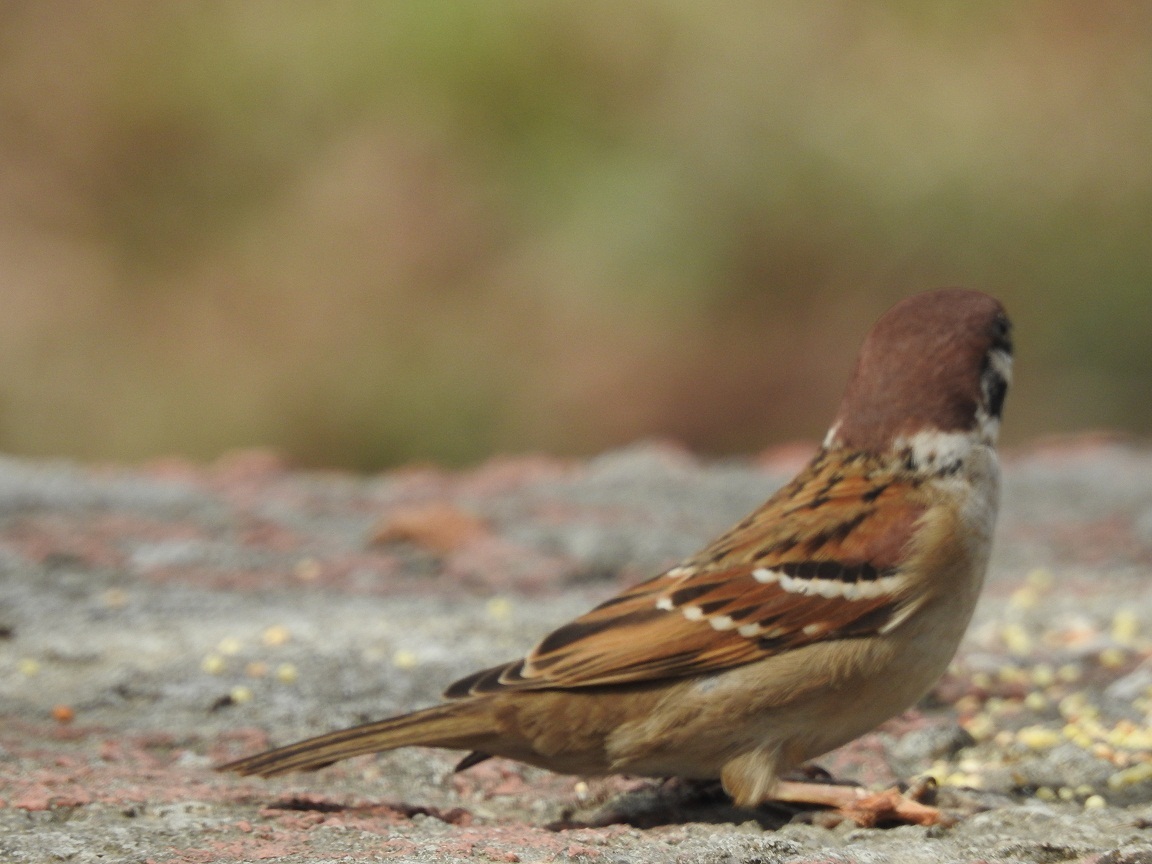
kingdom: Animalia
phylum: Chordata
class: Aves
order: Passeriformes
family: Passeridae
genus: Passer
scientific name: Passer montanus
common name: Eurasian tree sparrow
